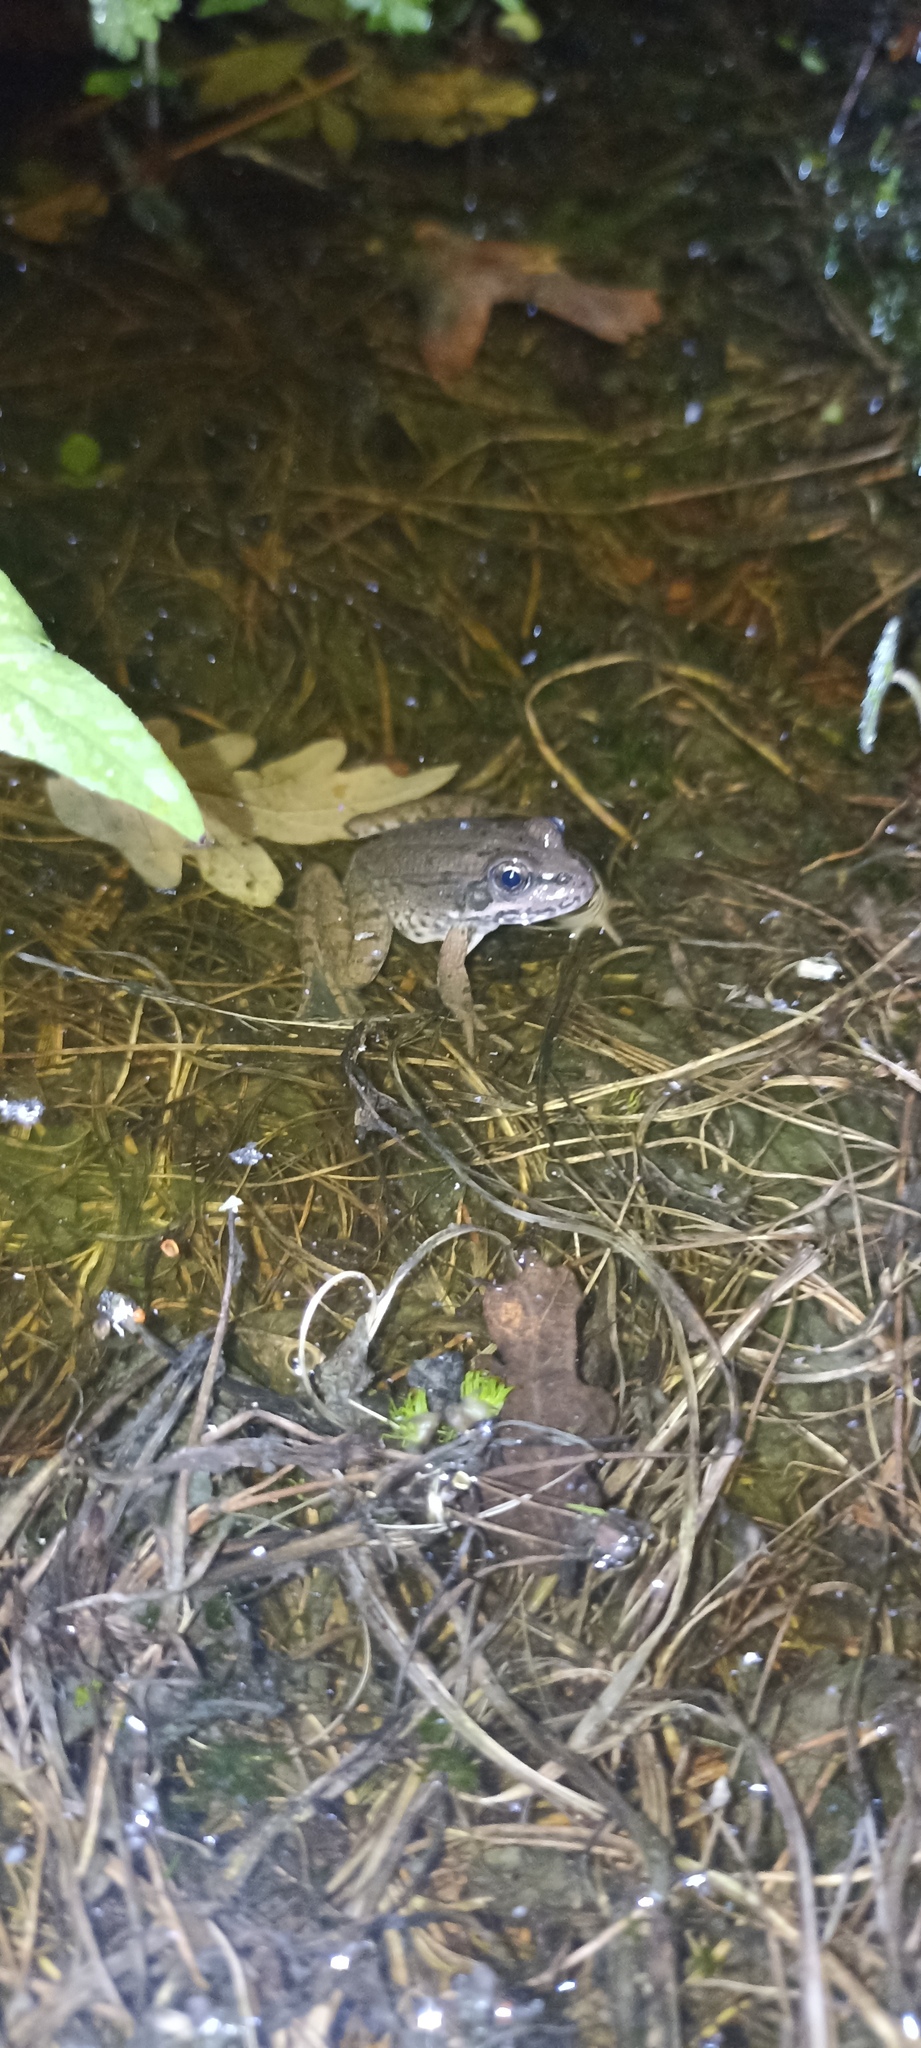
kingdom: Animalia
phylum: Chordata
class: Amphibia
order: Anura
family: Ranidae
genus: Pelophylax
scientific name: Pelophylax
